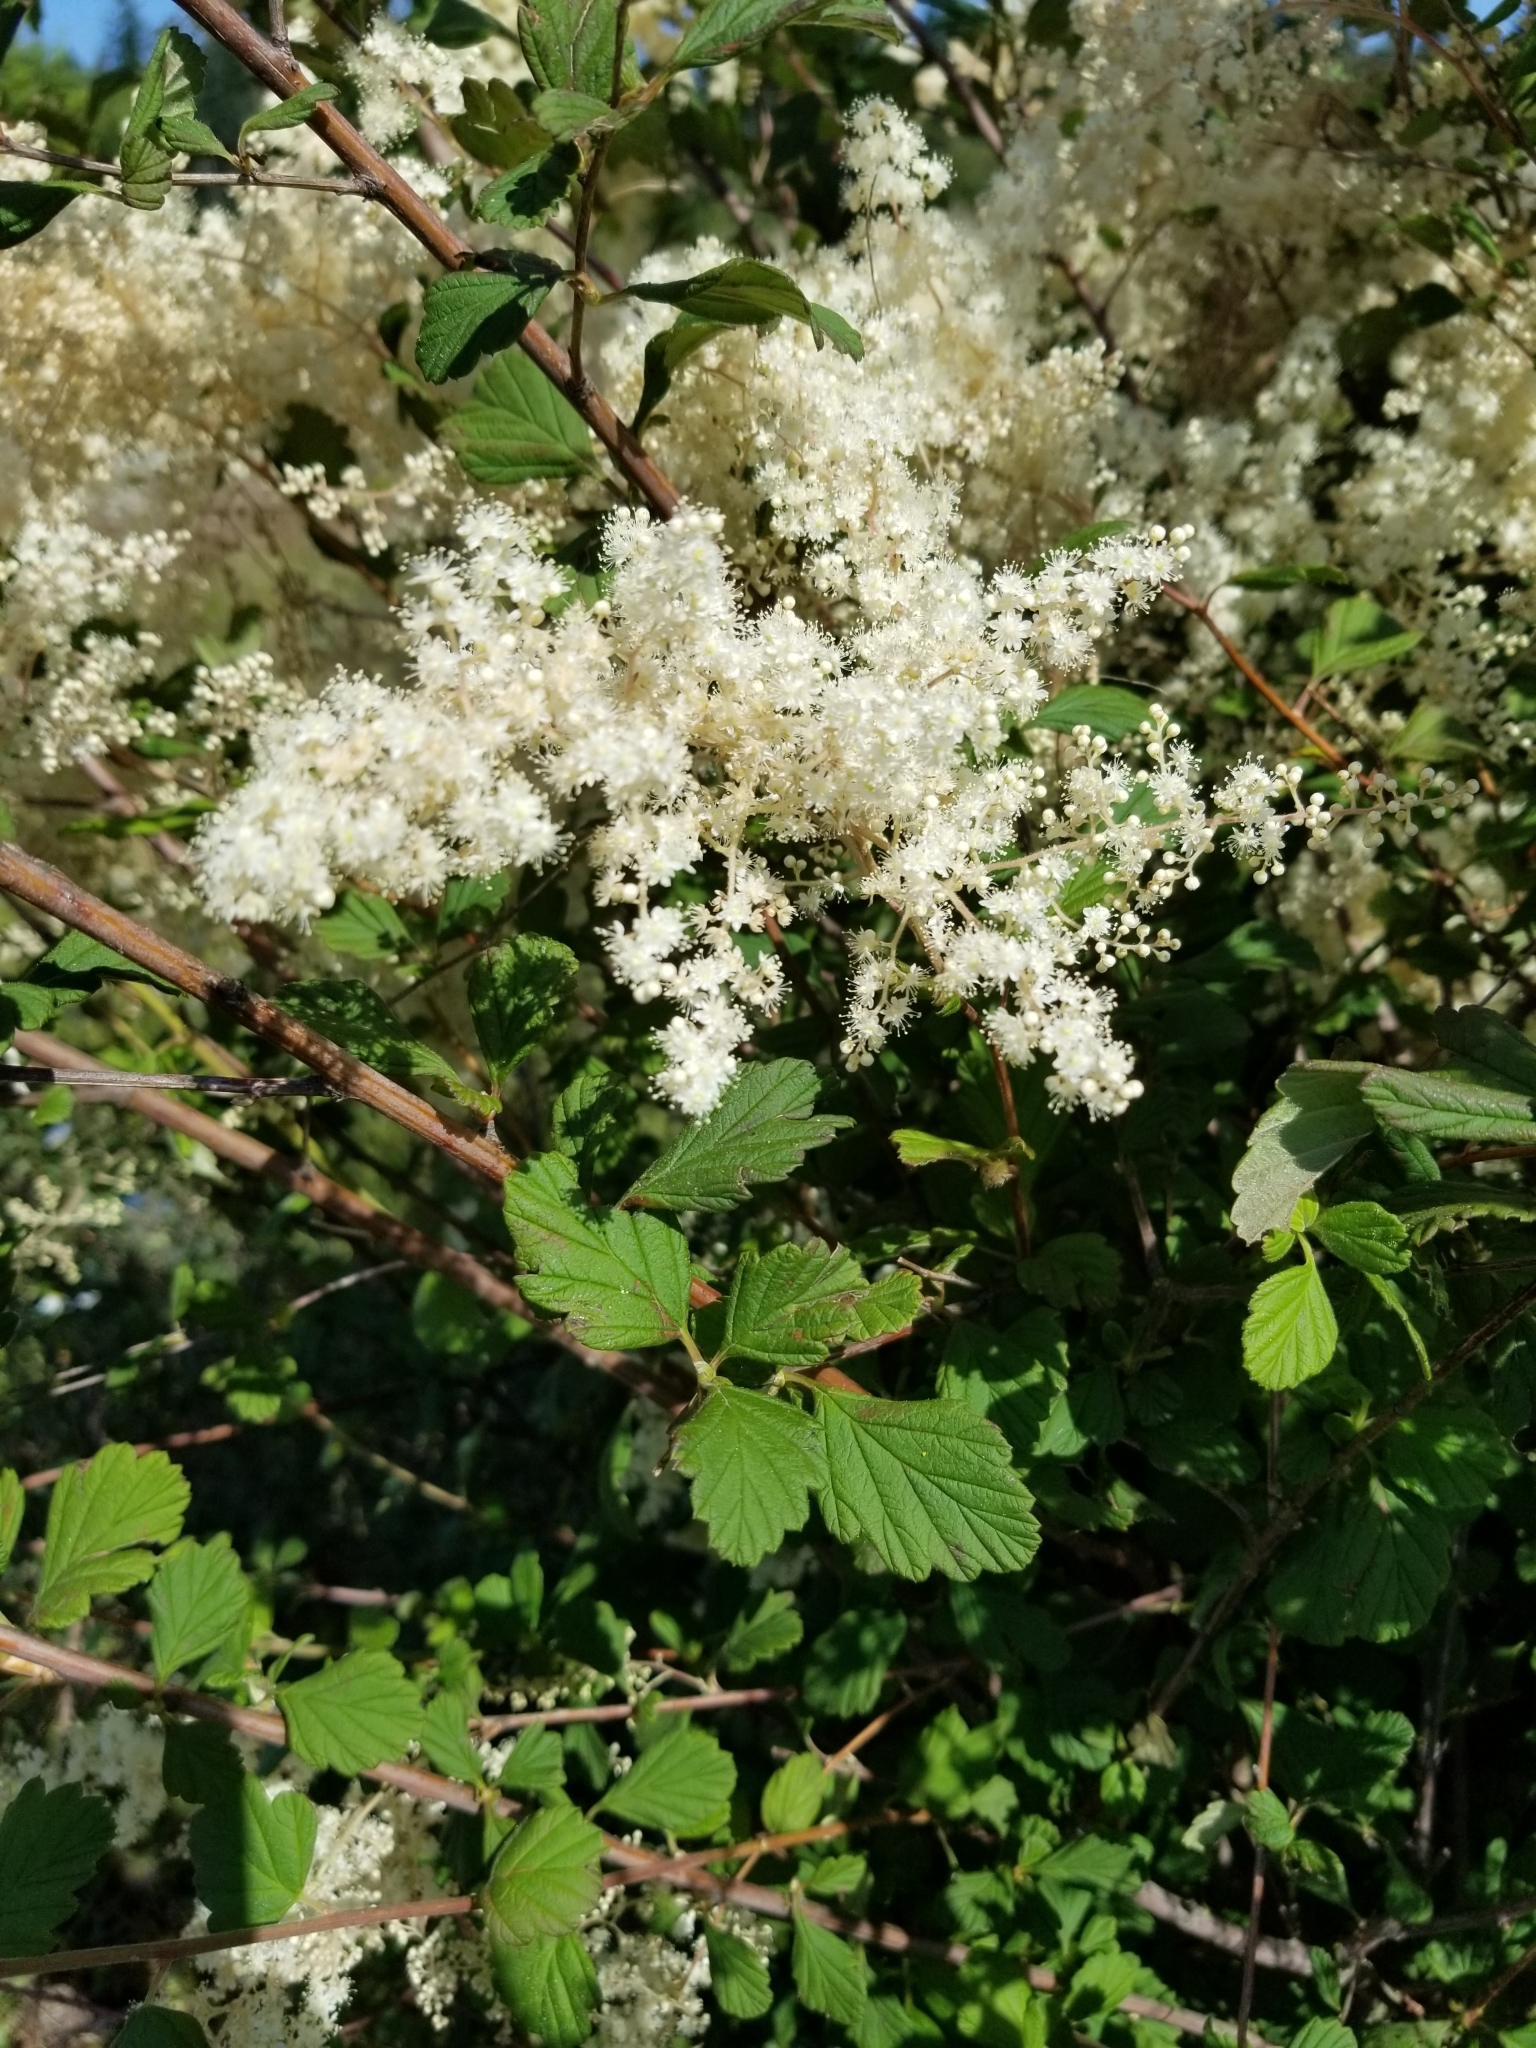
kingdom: Plantae
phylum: Tracheophyta
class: Magnoliopsida
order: Rosales
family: Rosaceae
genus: Holodiscus
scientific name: Holodiscus discolor
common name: Oceanspray
